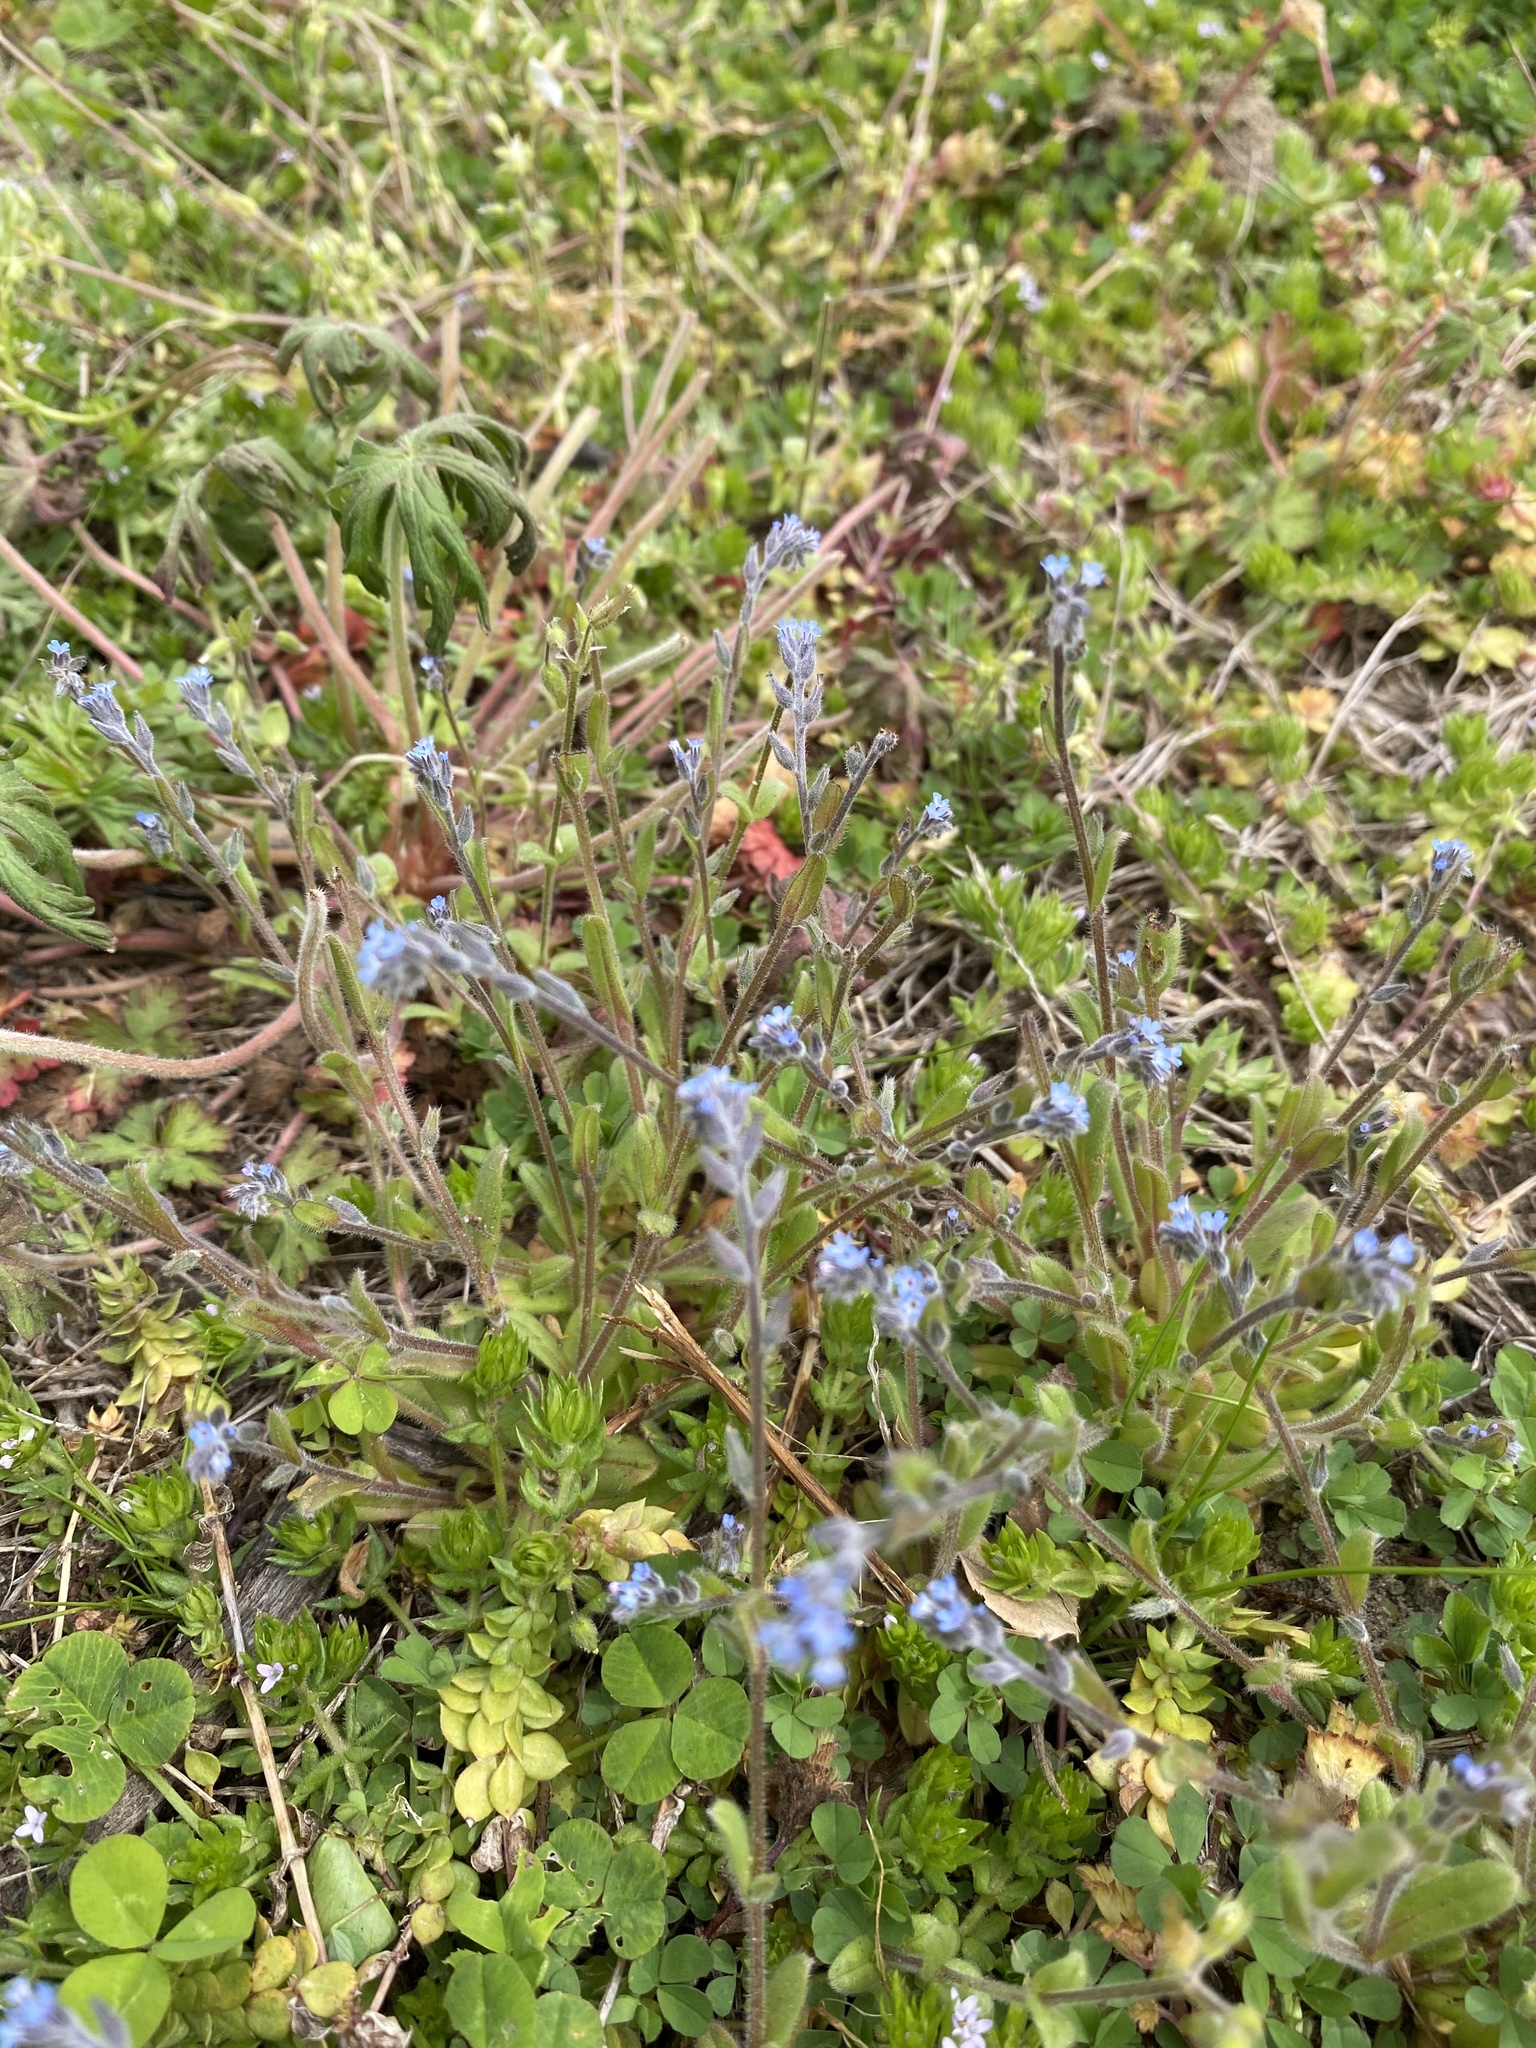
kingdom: Plantae
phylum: Tracheophyta
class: Magnoliopsida
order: Boraginales
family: Boraginaceae
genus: Myosotis
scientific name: Myosotis stricta
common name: Strict forget-me-not
